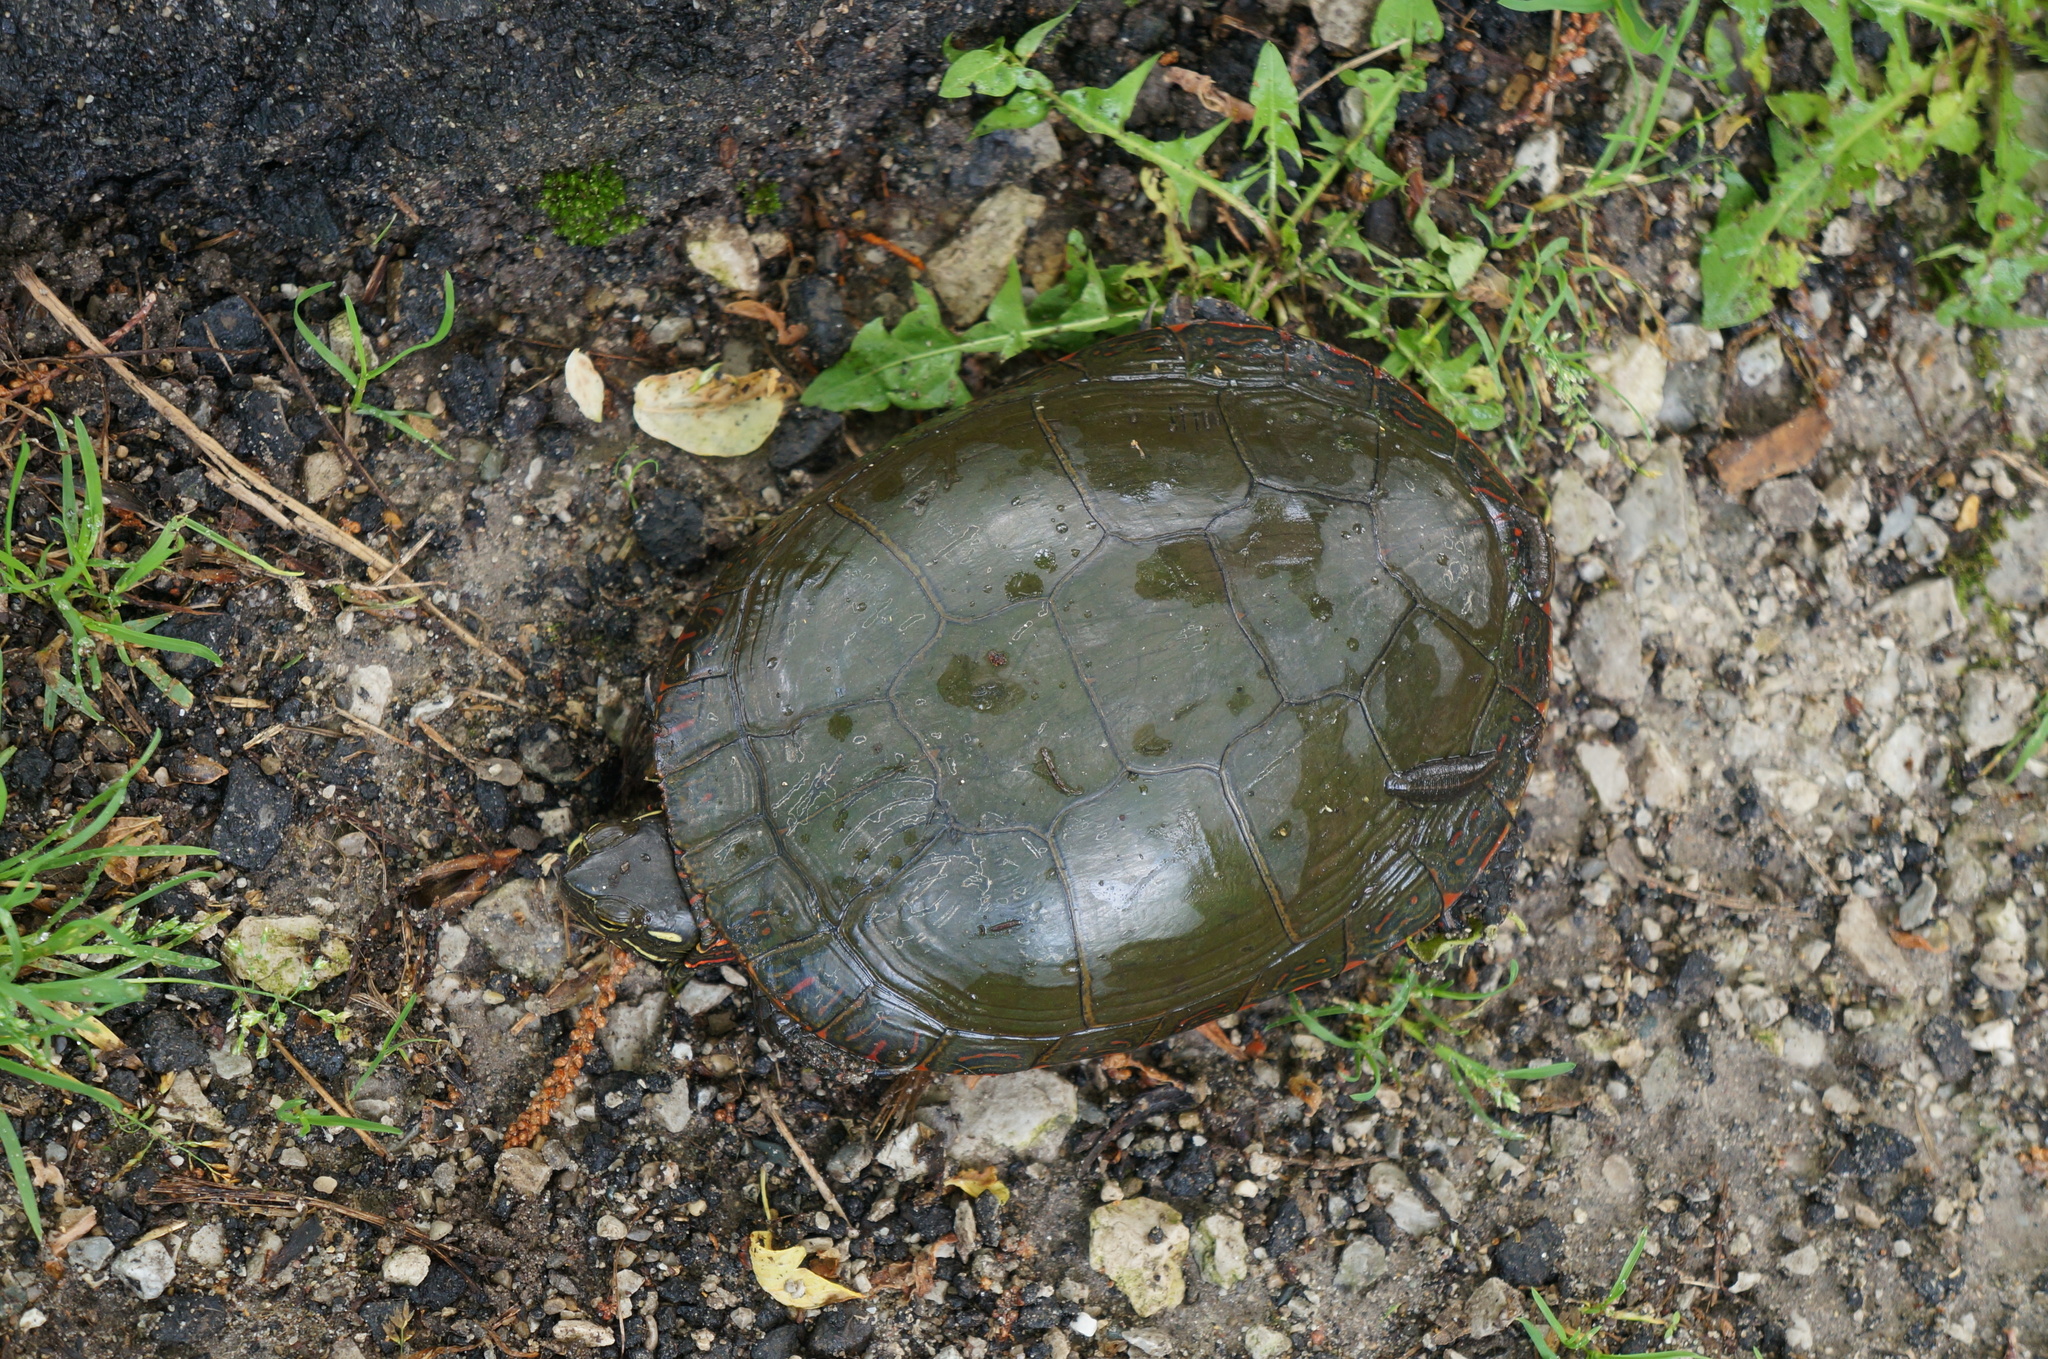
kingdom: Animalia
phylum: Chordata
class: Testudines
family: Emydidae
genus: Chrysemys
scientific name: Chrysemys picta
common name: Painted turtle
